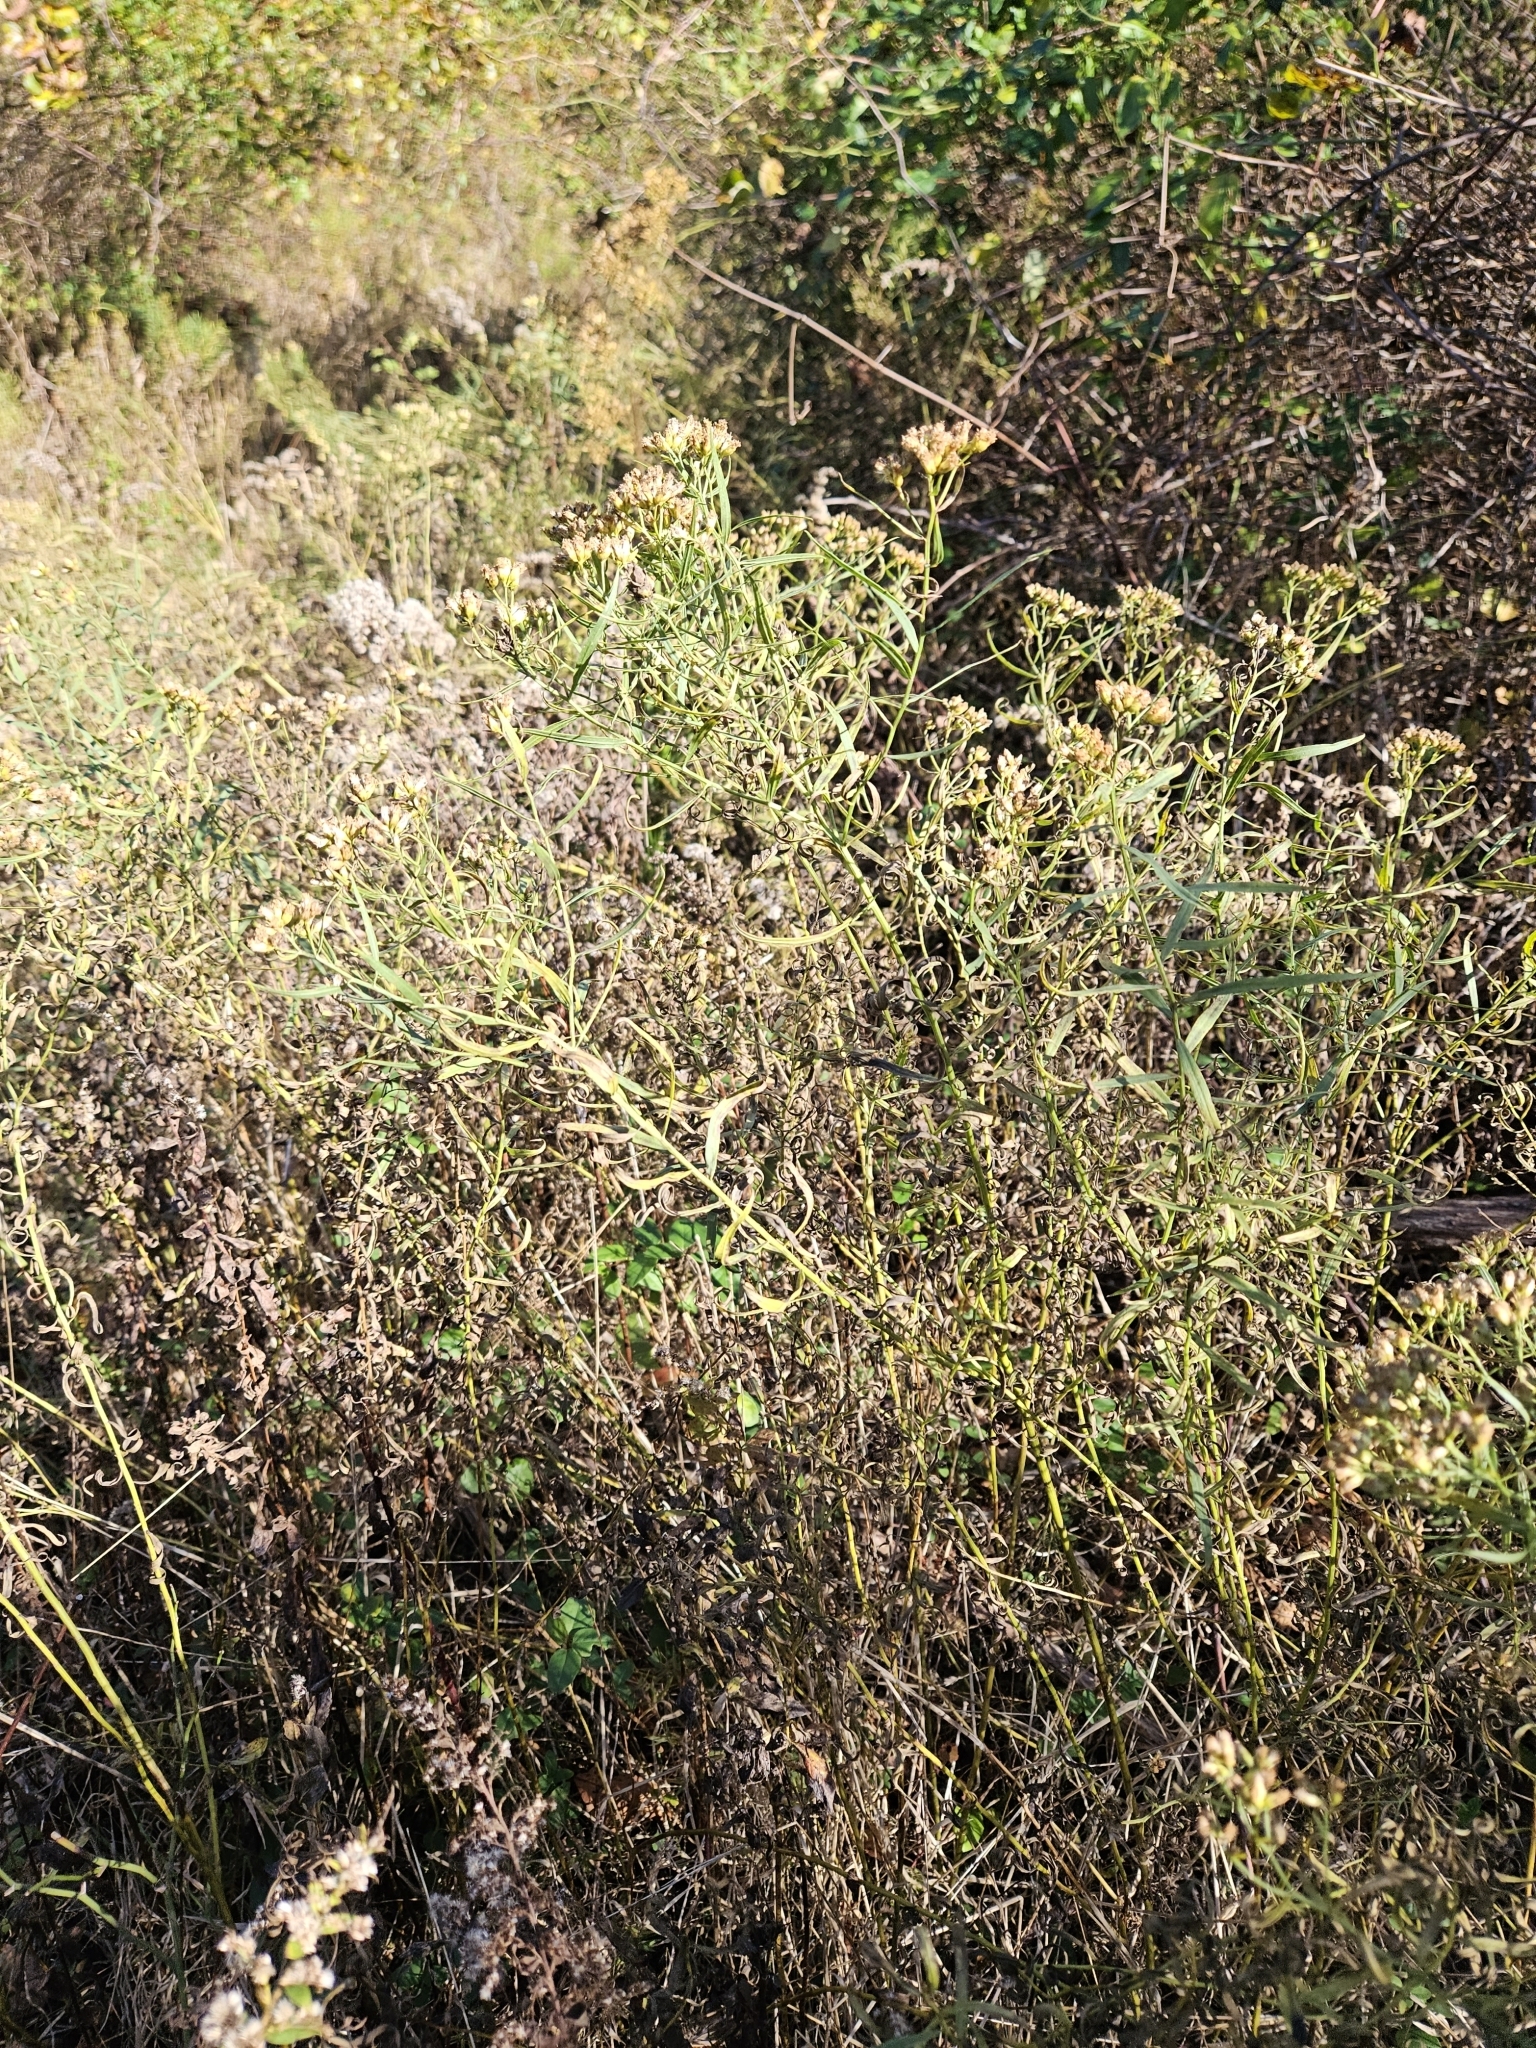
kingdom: Plantae
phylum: Tracheophyta
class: Magnoliopsida
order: Asterales
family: Asteraceae
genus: Euthamia
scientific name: Euthamia graminifolia
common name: Common goldentop
